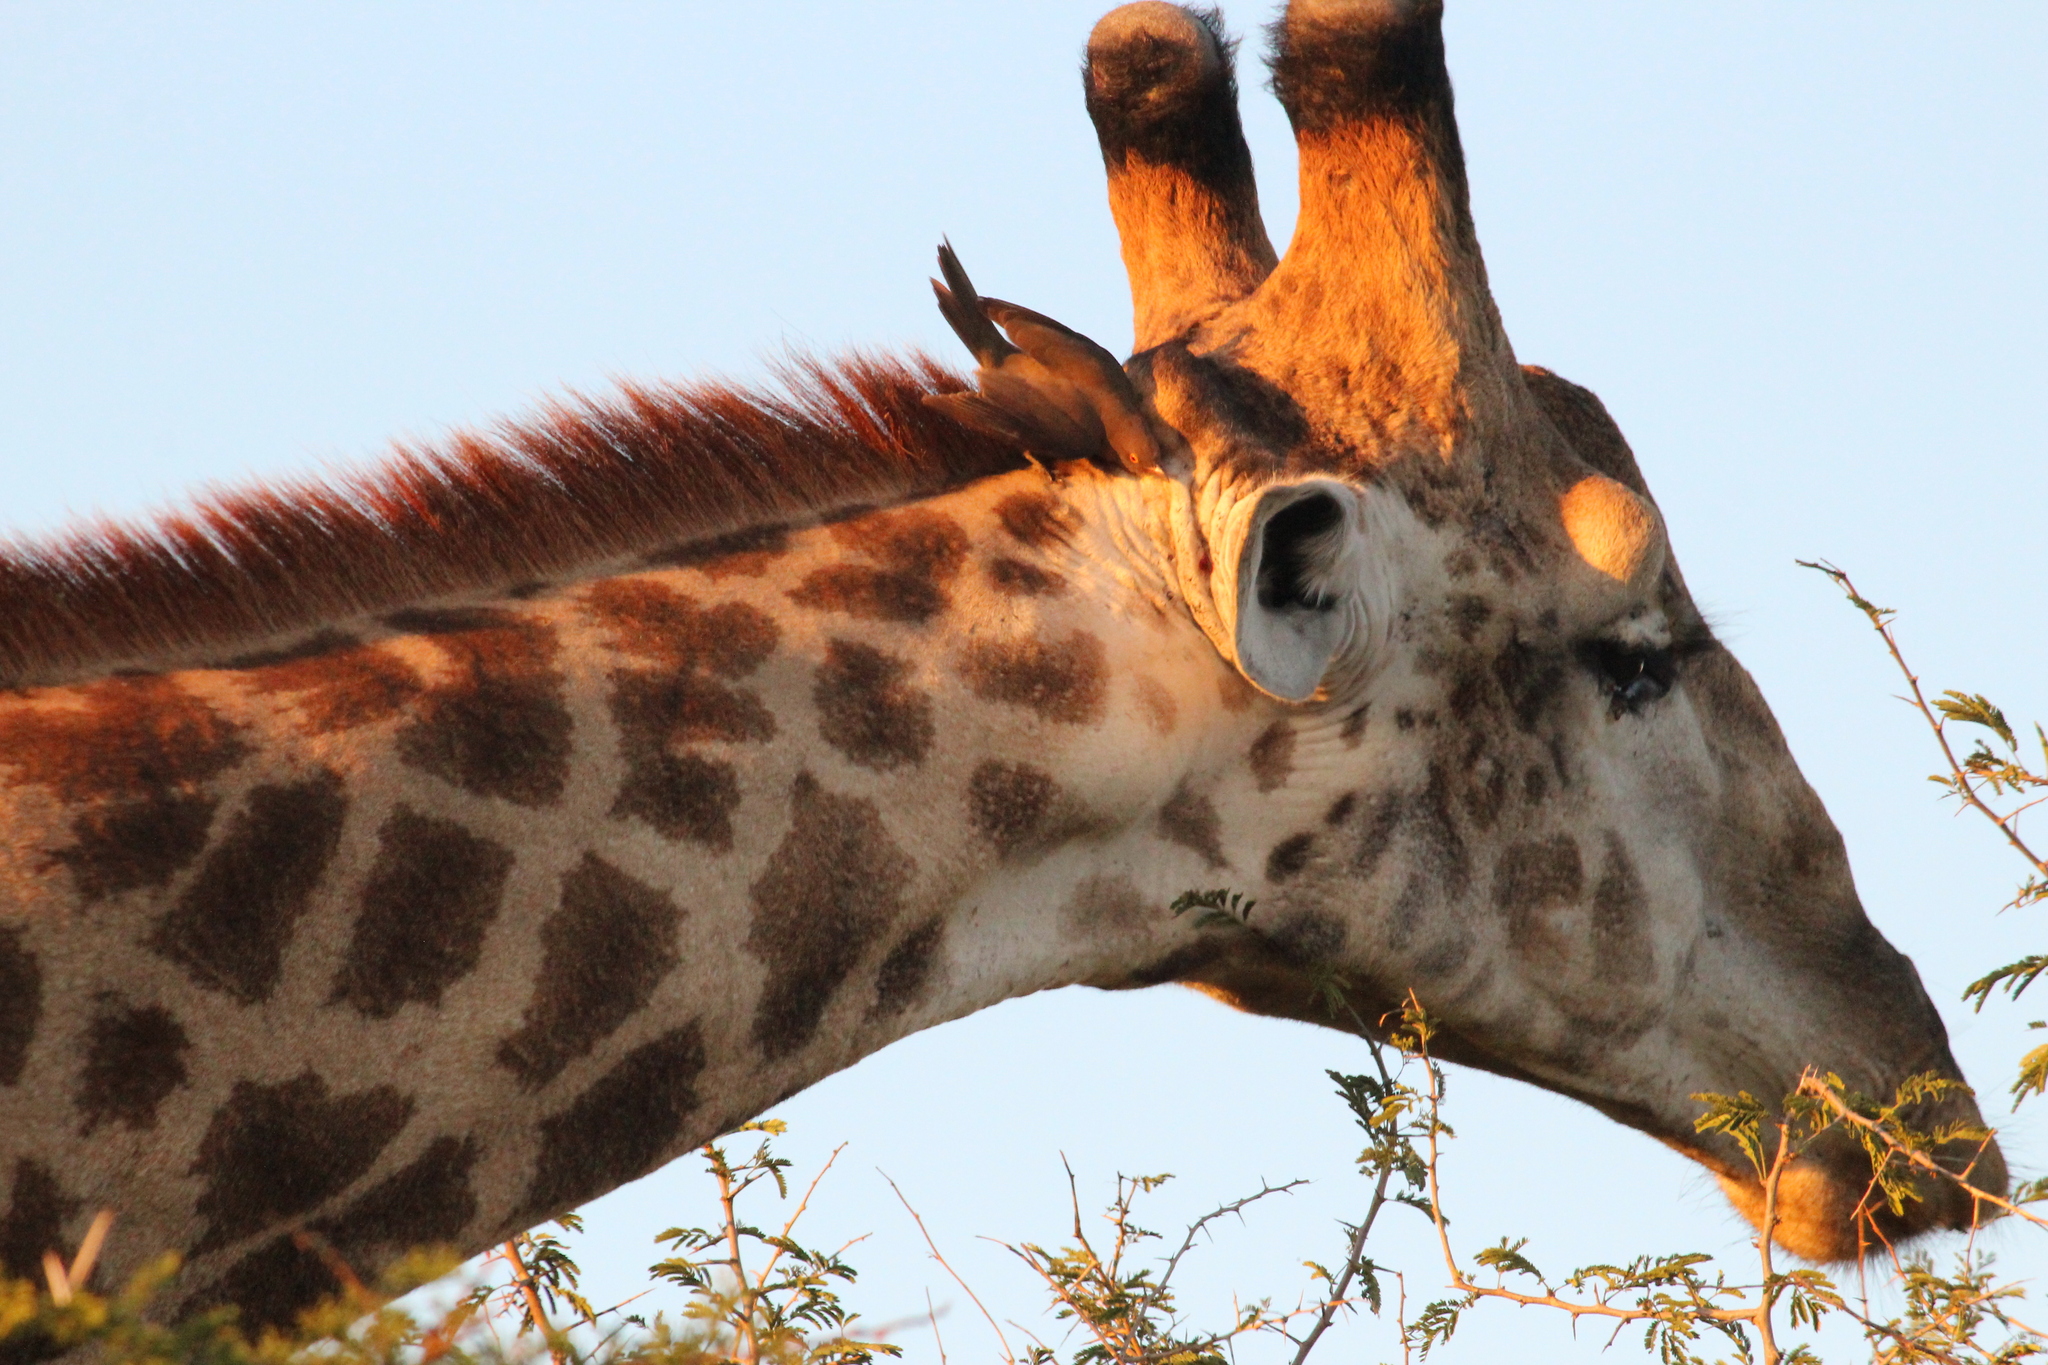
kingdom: Animalia
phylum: Chordata
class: Aves
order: Passeriformes
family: Buphagidae
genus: Buphagus
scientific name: Buphagus erythrorhynchus
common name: Red-billed oxpecker
